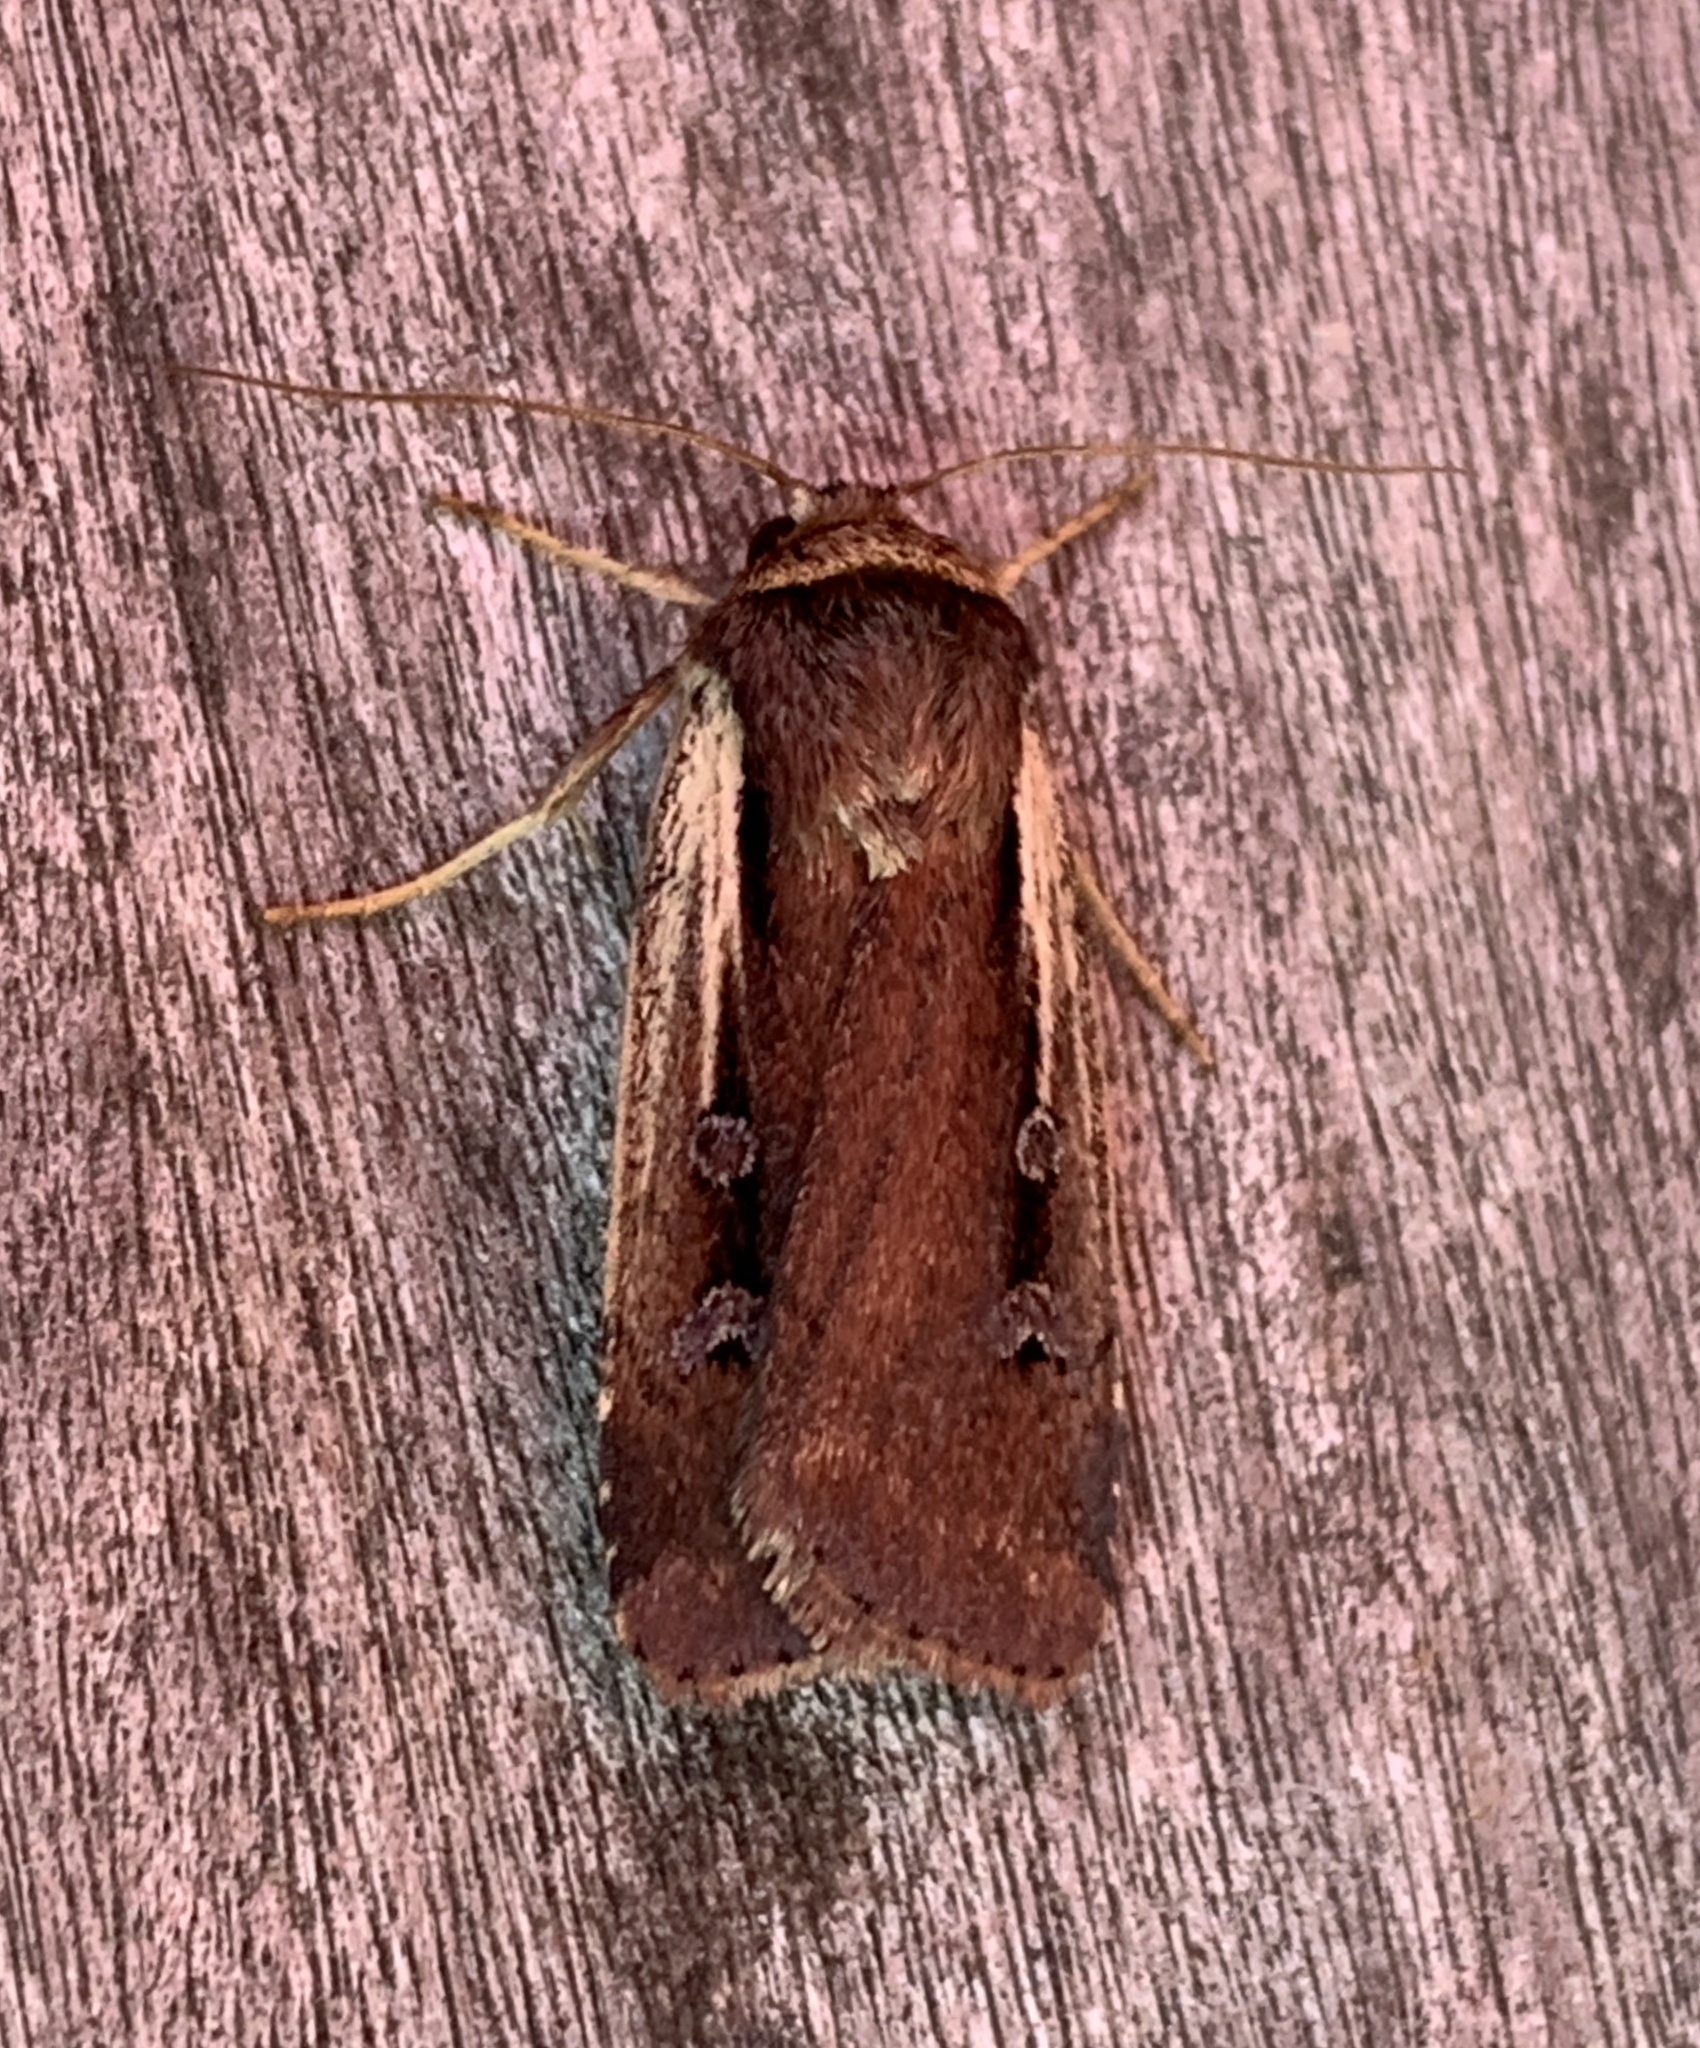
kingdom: Animalia
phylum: Arthropoda
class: Insecta
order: Lepidoptera
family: Noctuidae
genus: Ochropleura
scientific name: Ochropleura implecta
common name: Flame-shouldered dart
